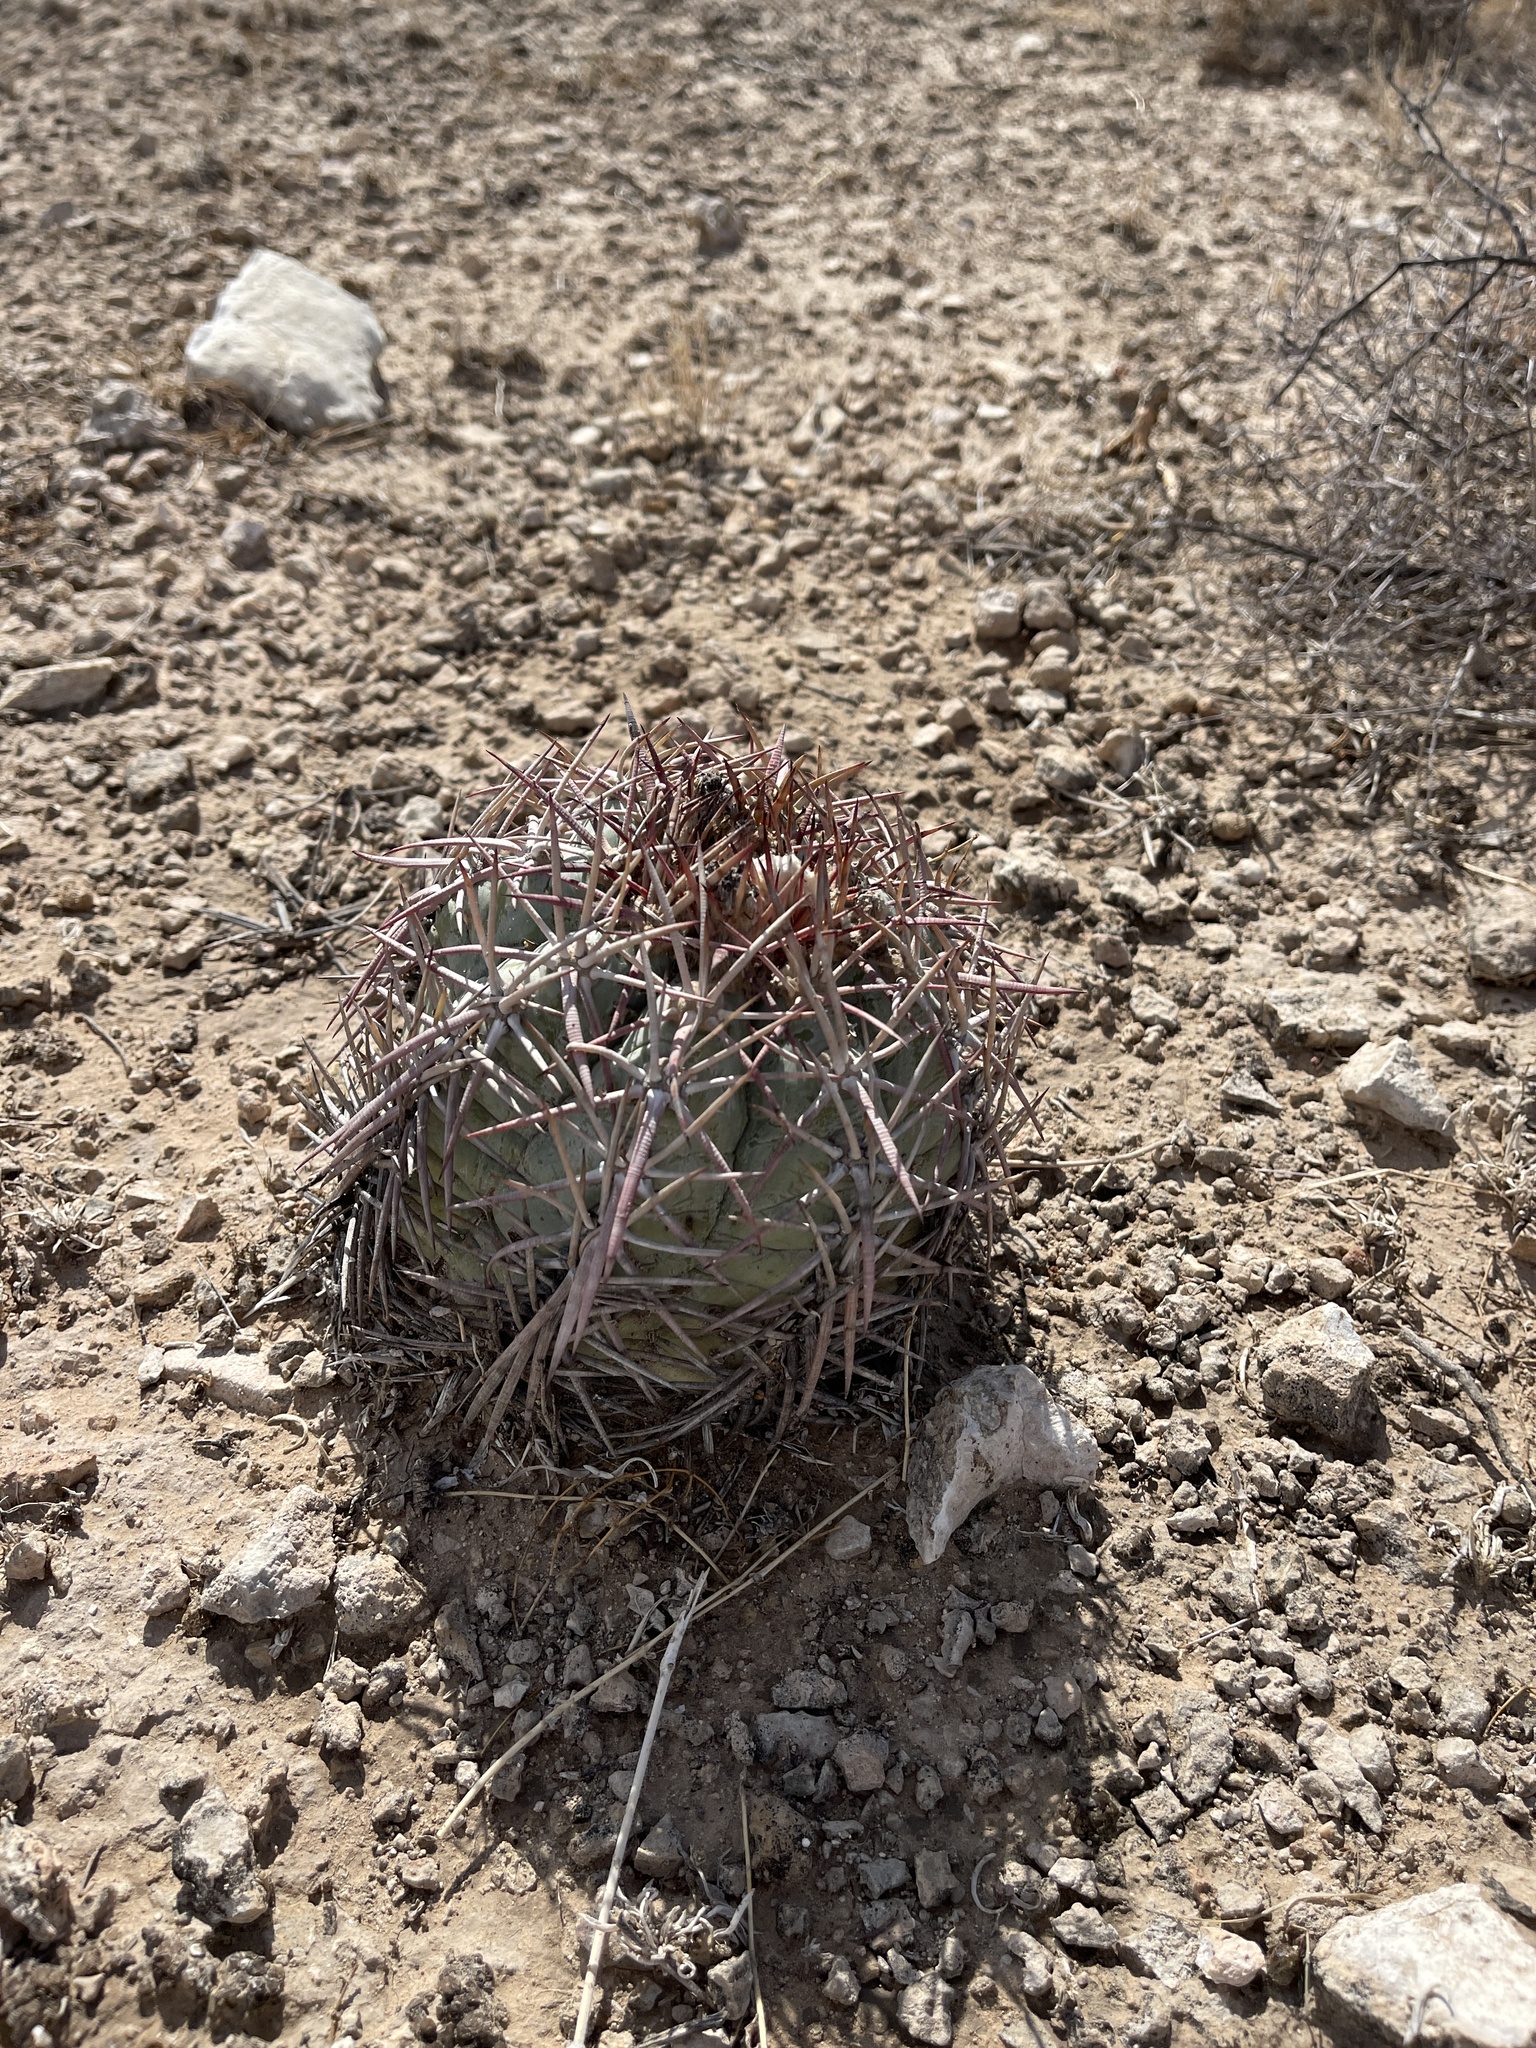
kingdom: Plantae
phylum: Tracheophyta
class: Magnoliopsida
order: Caryophyllales
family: Cactaceae
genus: Echinocactus
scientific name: Echinocactus horizonthalonius
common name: Devilshead
